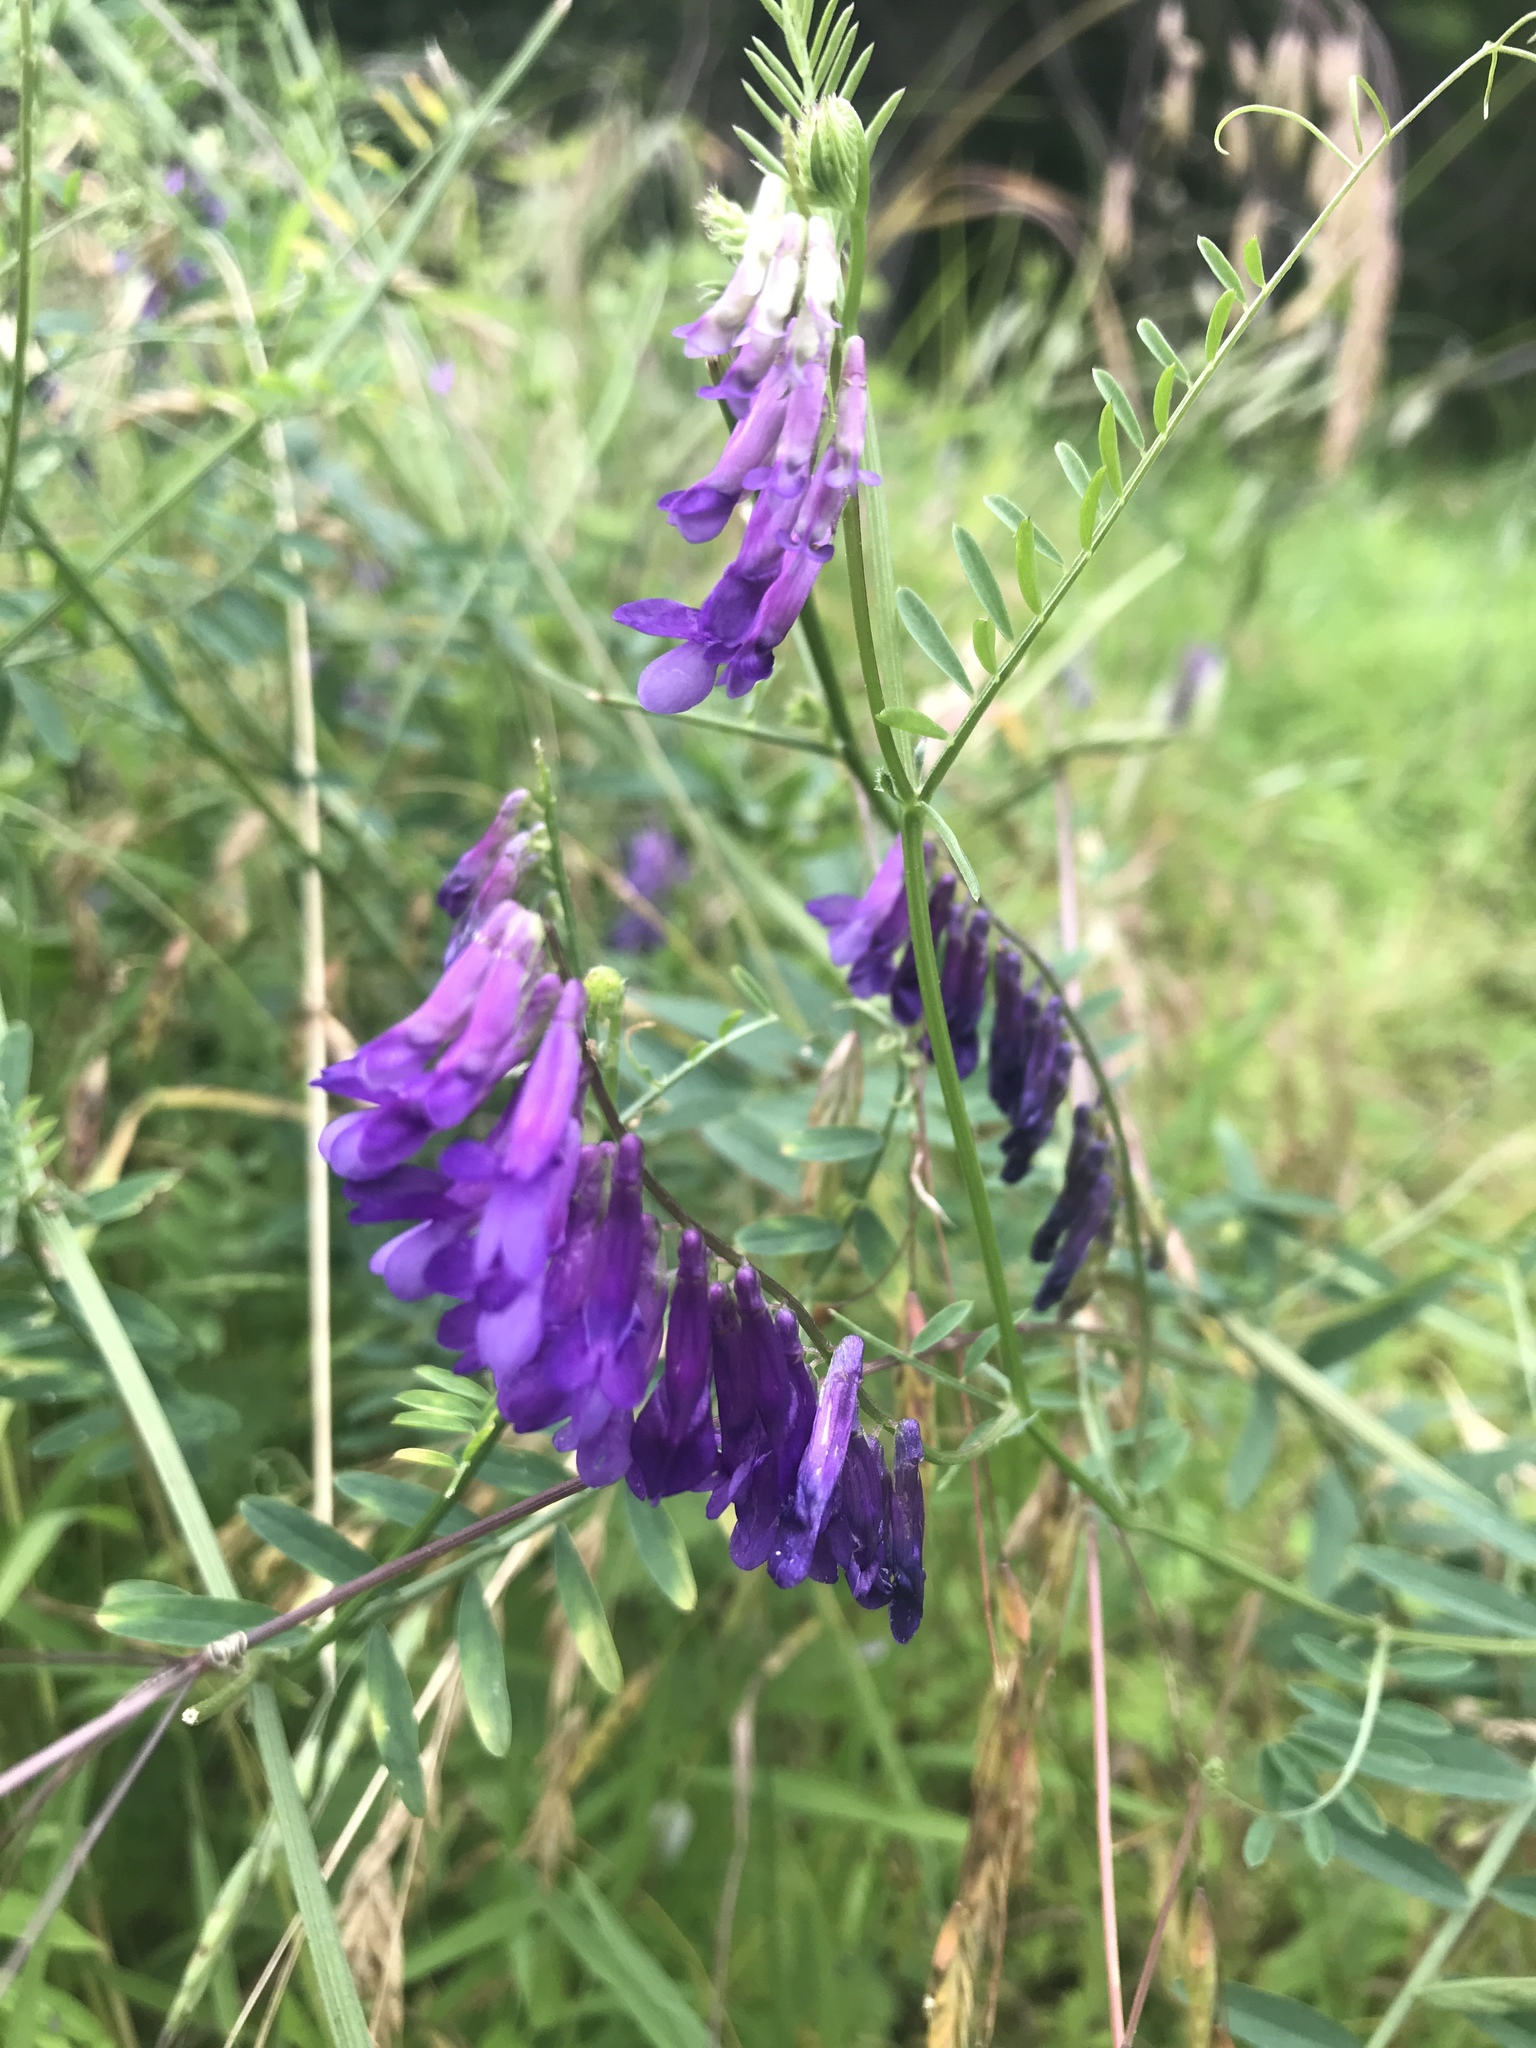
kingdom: Plantae
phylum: Tracheophyta
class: Magnoliopsida
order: Fabales
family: Fabaceae
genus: Vicia
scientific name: Vicia villosa
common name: Fodder vetch
